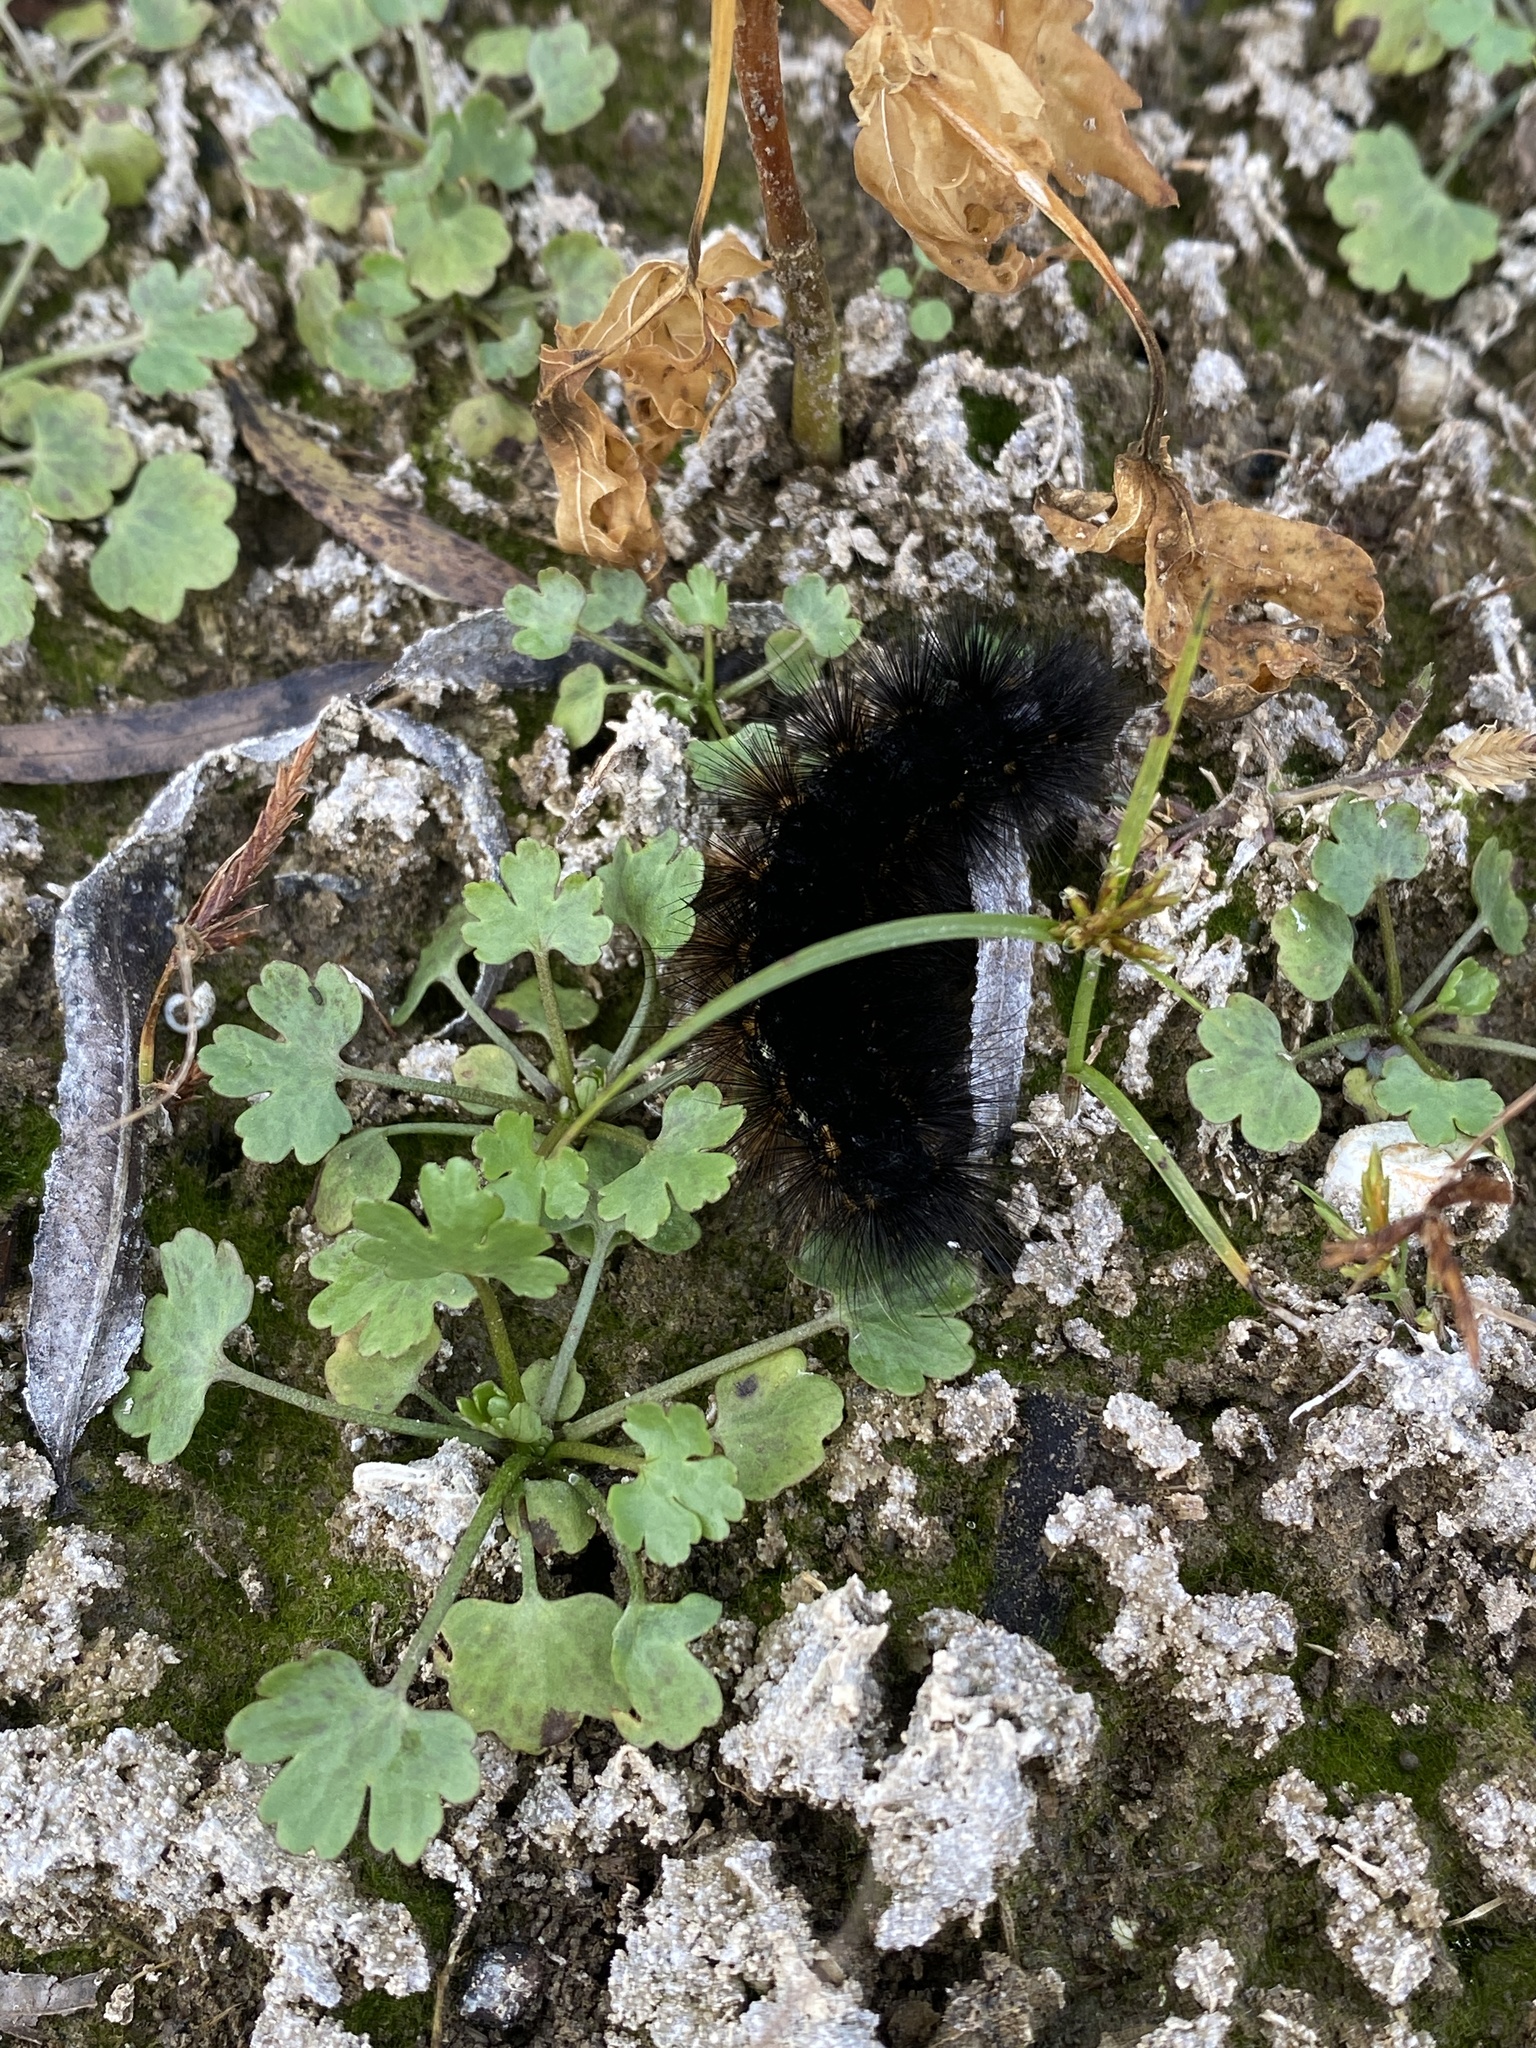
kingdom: Animalia
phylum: Arthropoda
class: Insecta
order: Lepidoptera
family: Erebidae
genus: Estigmene
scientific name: Estigmene acrea
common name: Salt marsh moth
